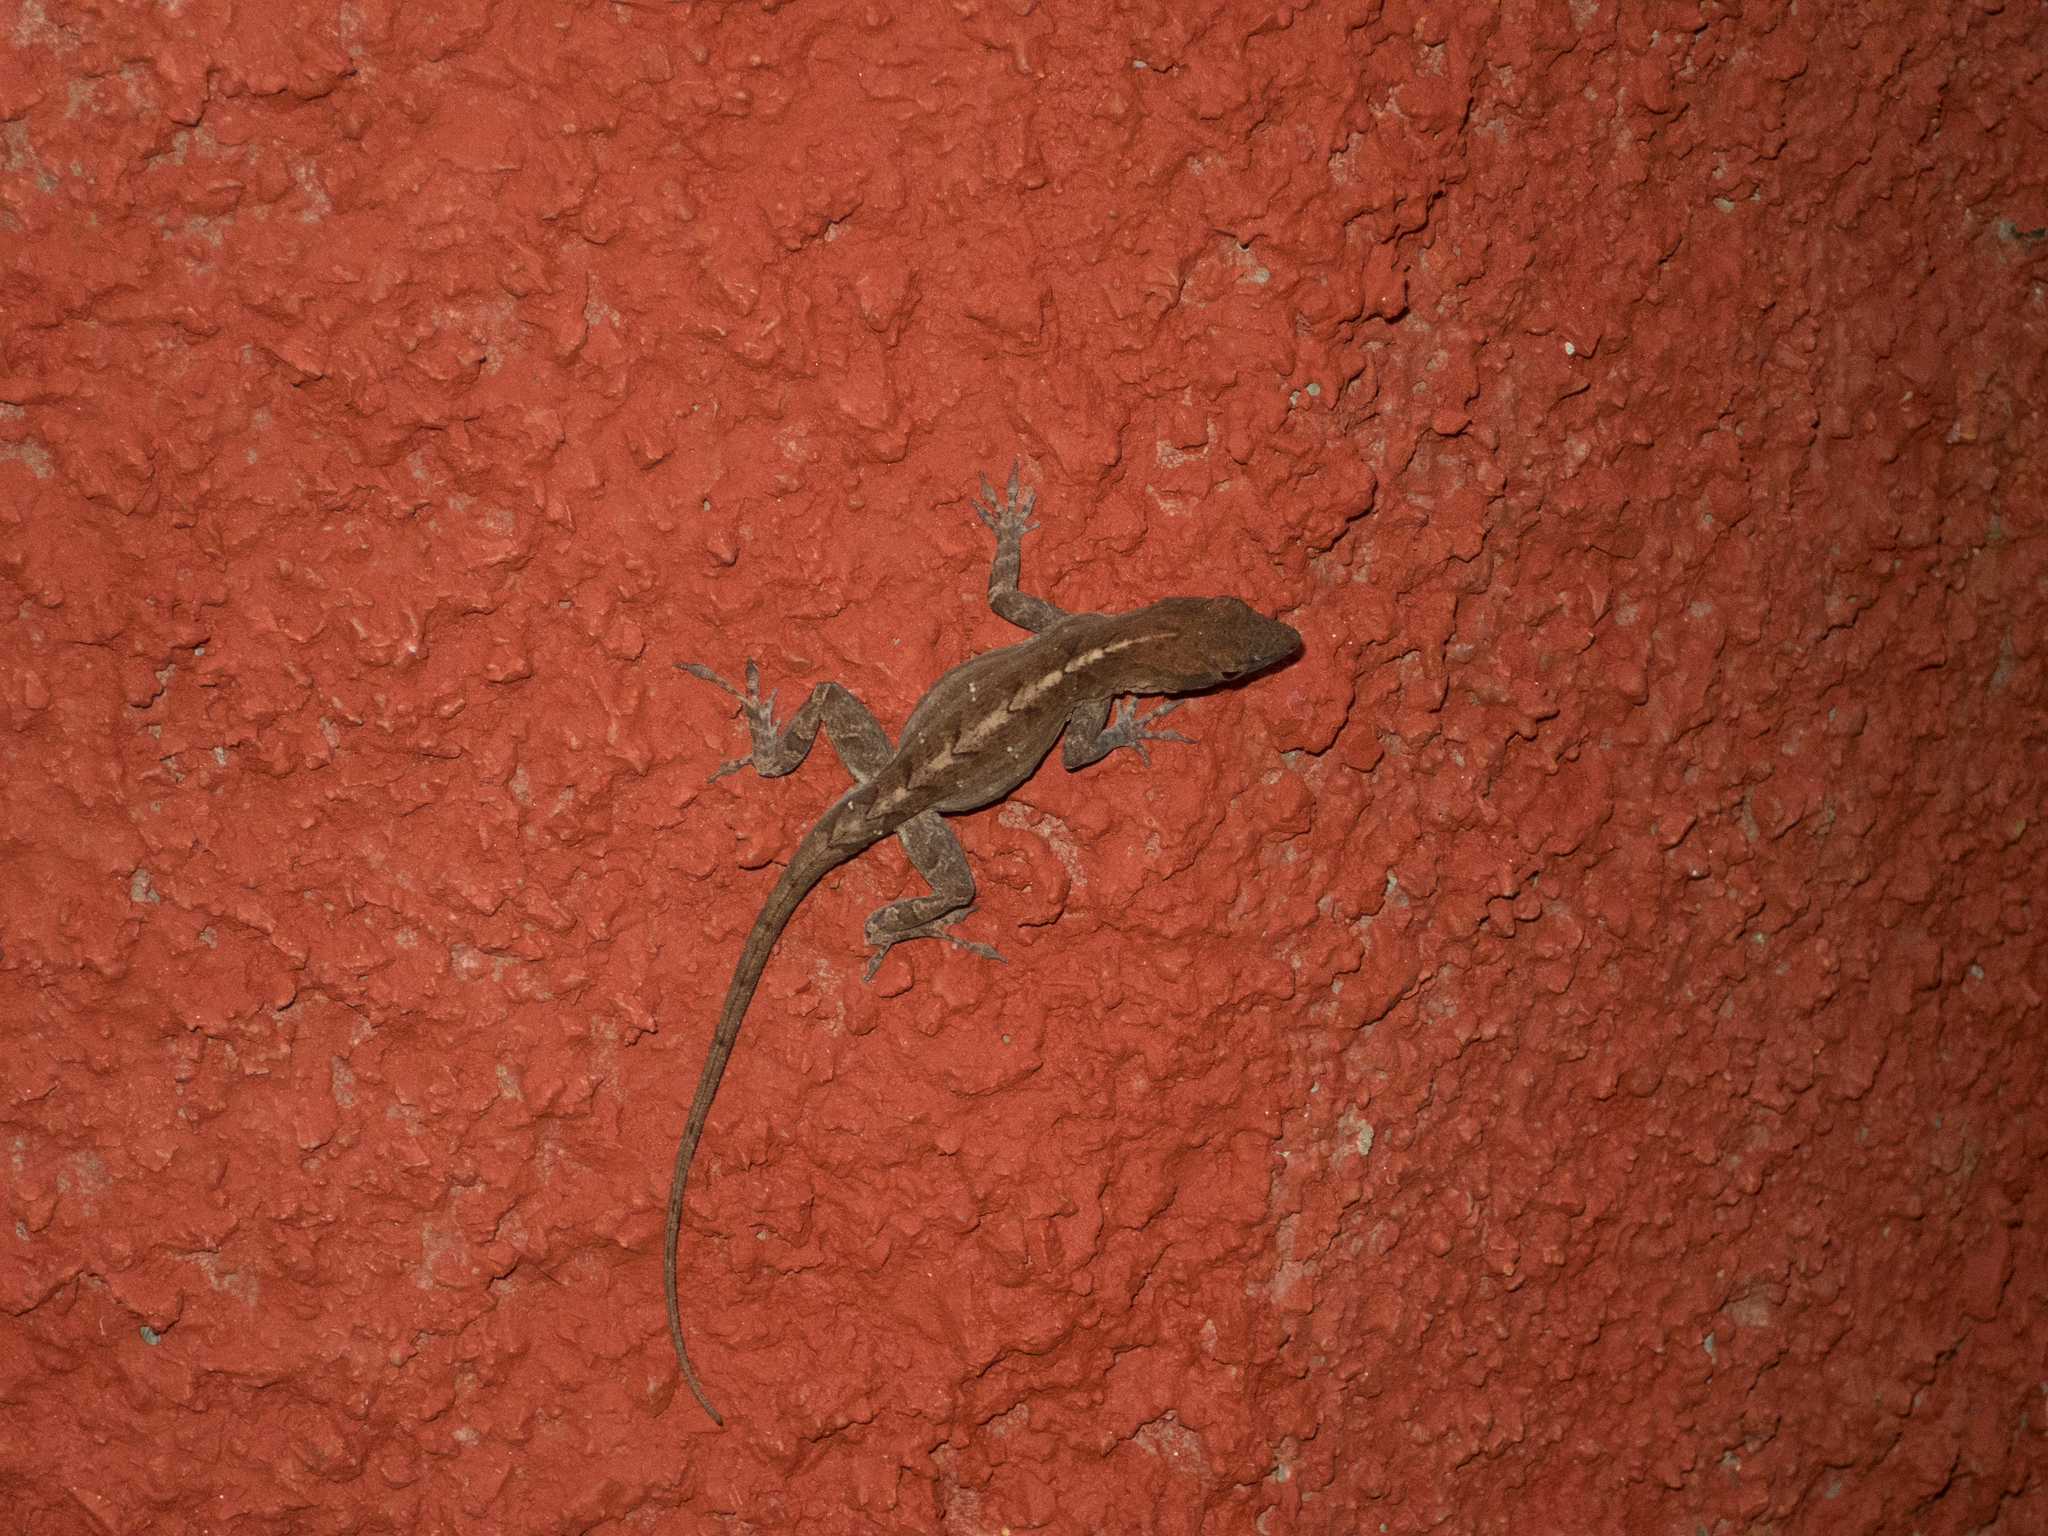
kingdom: Animalia
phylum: Chordata
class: Squamata
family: Dactyloidae
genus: Anolis
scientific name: Anolis sagrei
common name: Brown anole
